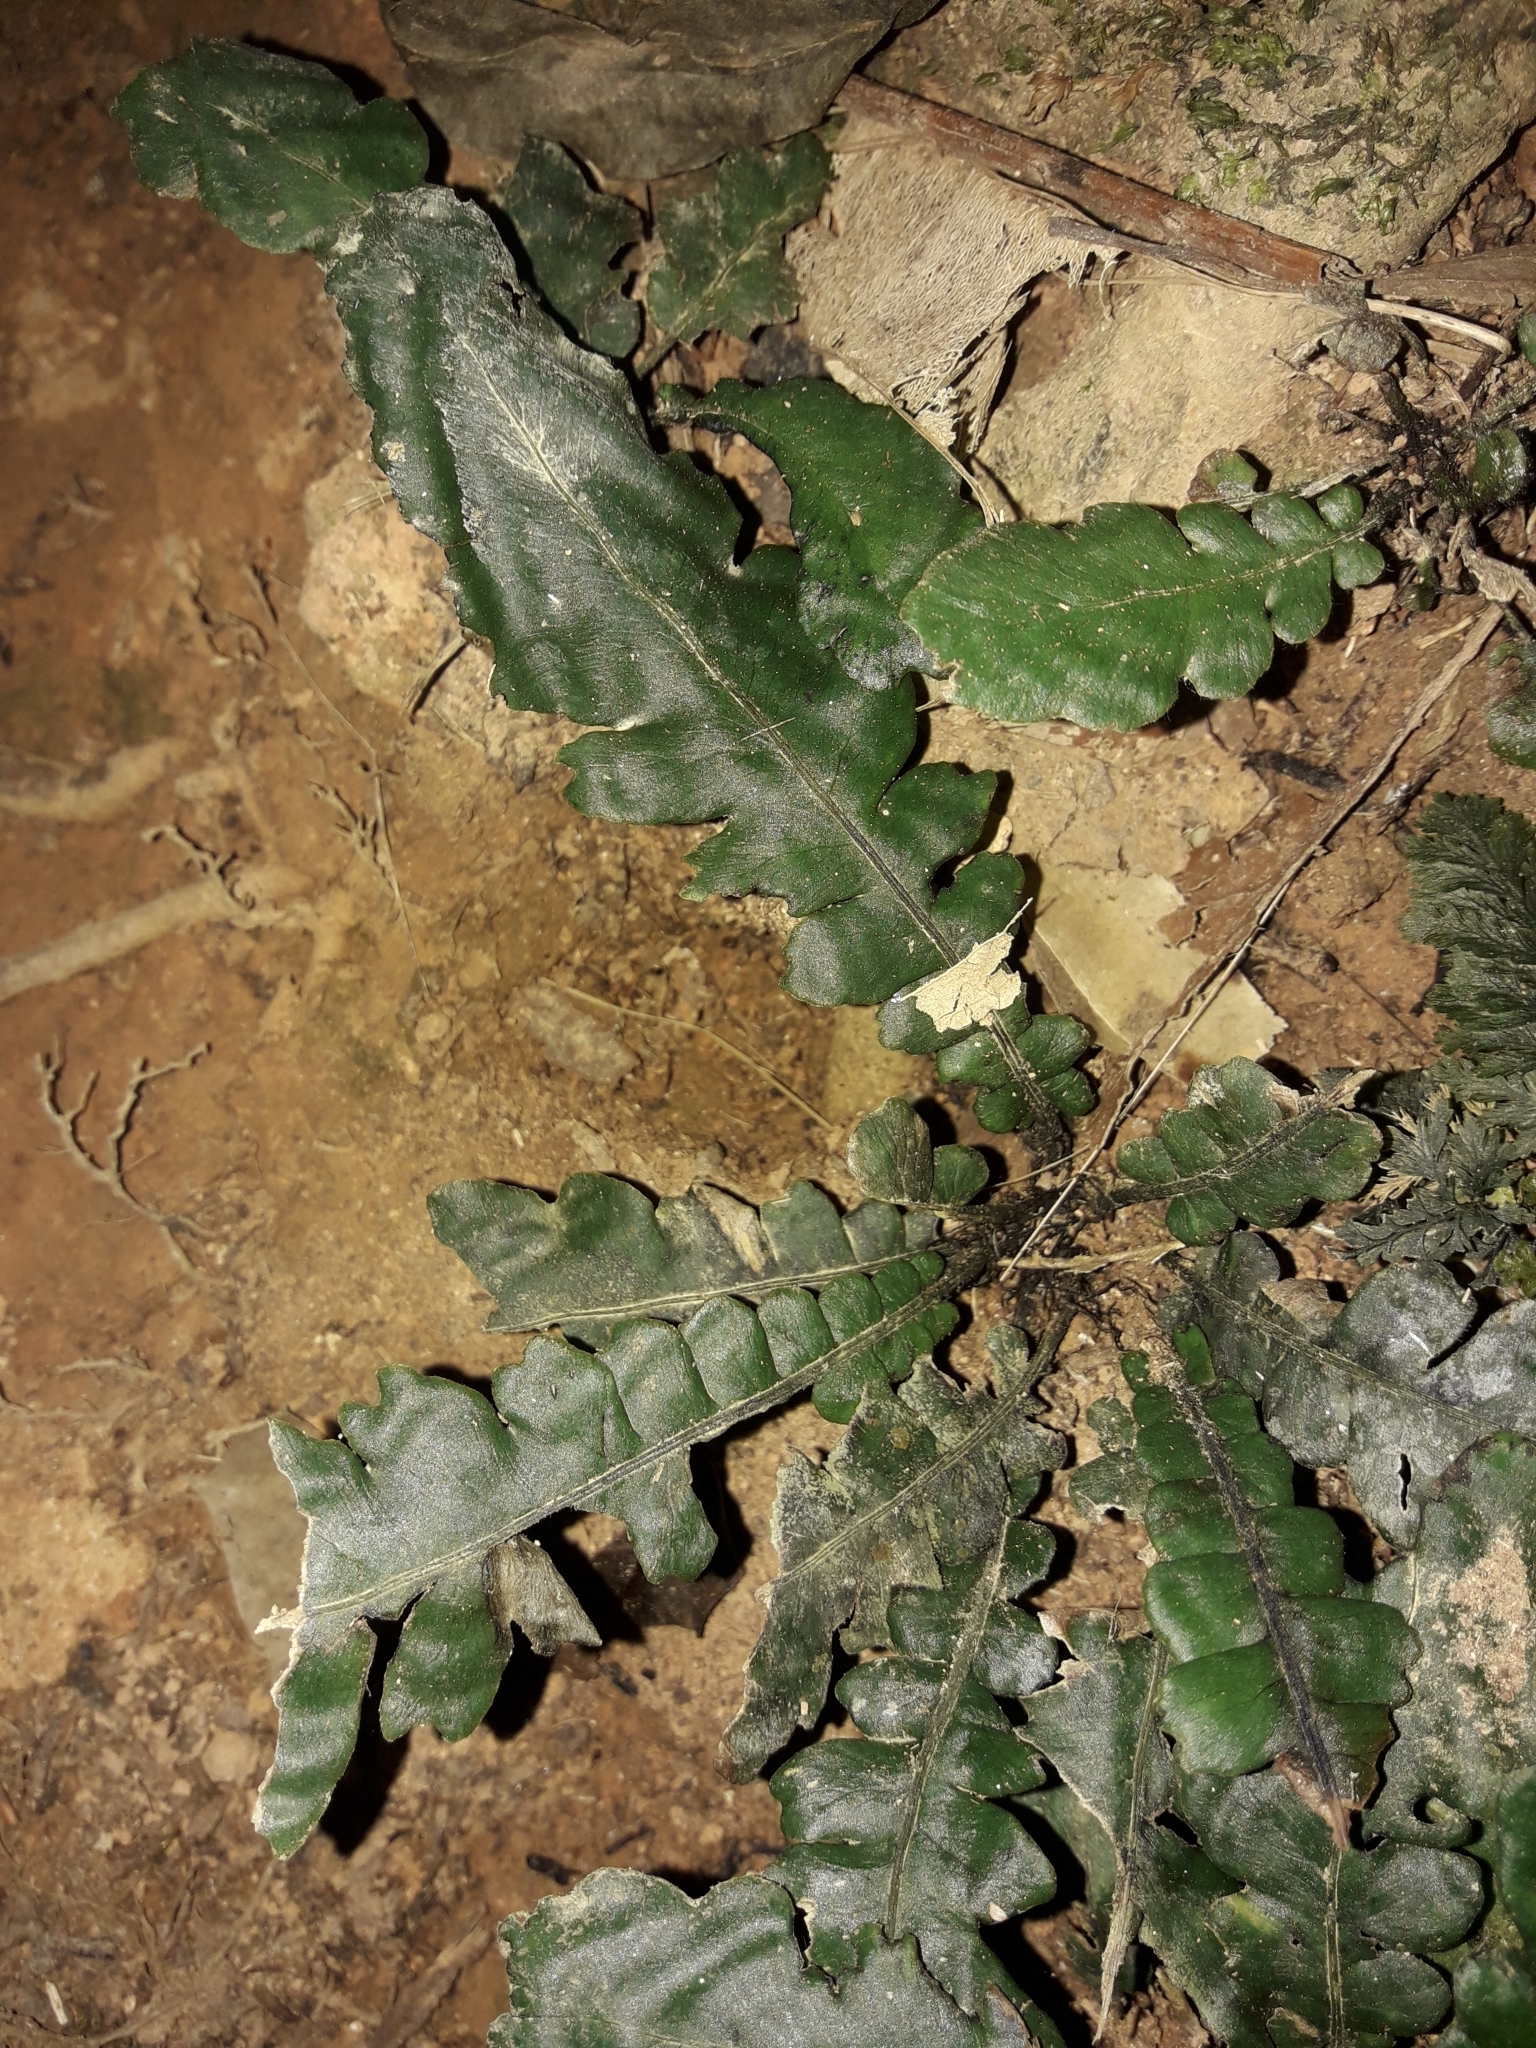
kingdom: Plantae
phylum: Tracheophyta
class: Polypodiopsida
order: Polypodiales
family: Blechnaceae
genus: Cranfillia
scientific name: Cranfillia opaca
